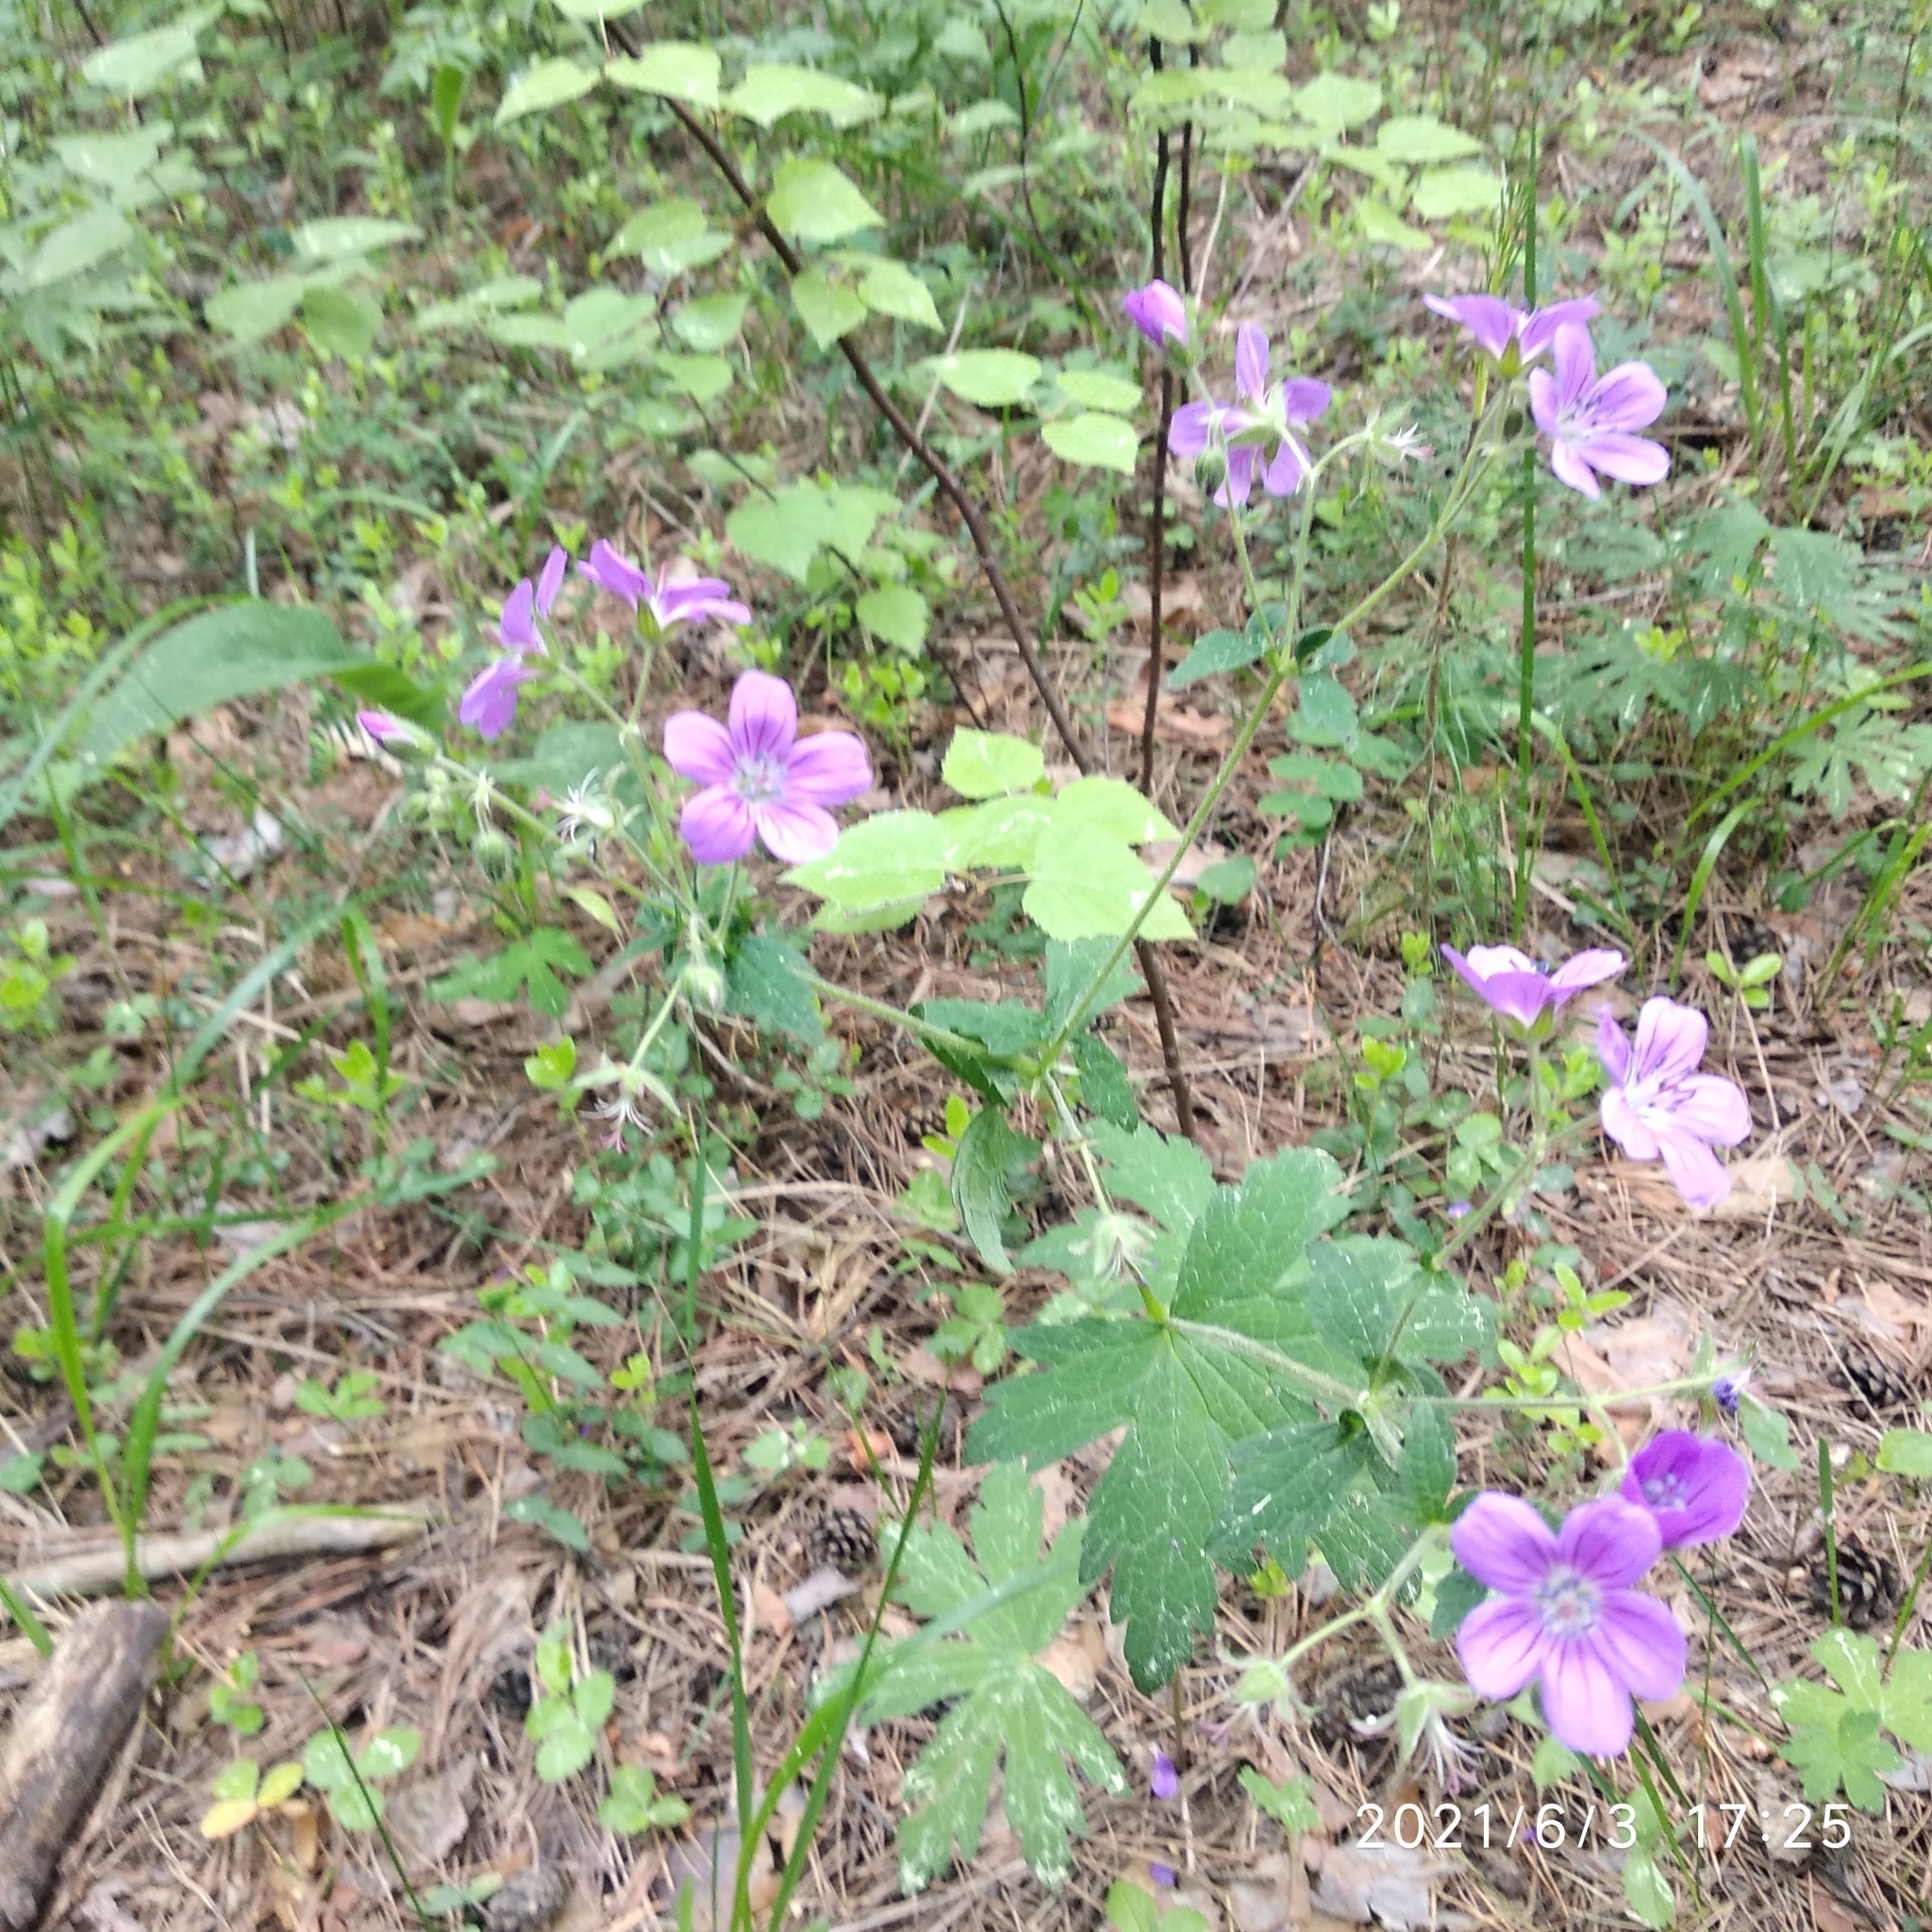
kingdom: Plantae
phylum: Tracheophyta
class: Magnoliopsida
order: Geraniales
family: Geraniaceae
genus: Geranium
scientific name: Geranium sylvaticum
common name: Wood crane's-bill
